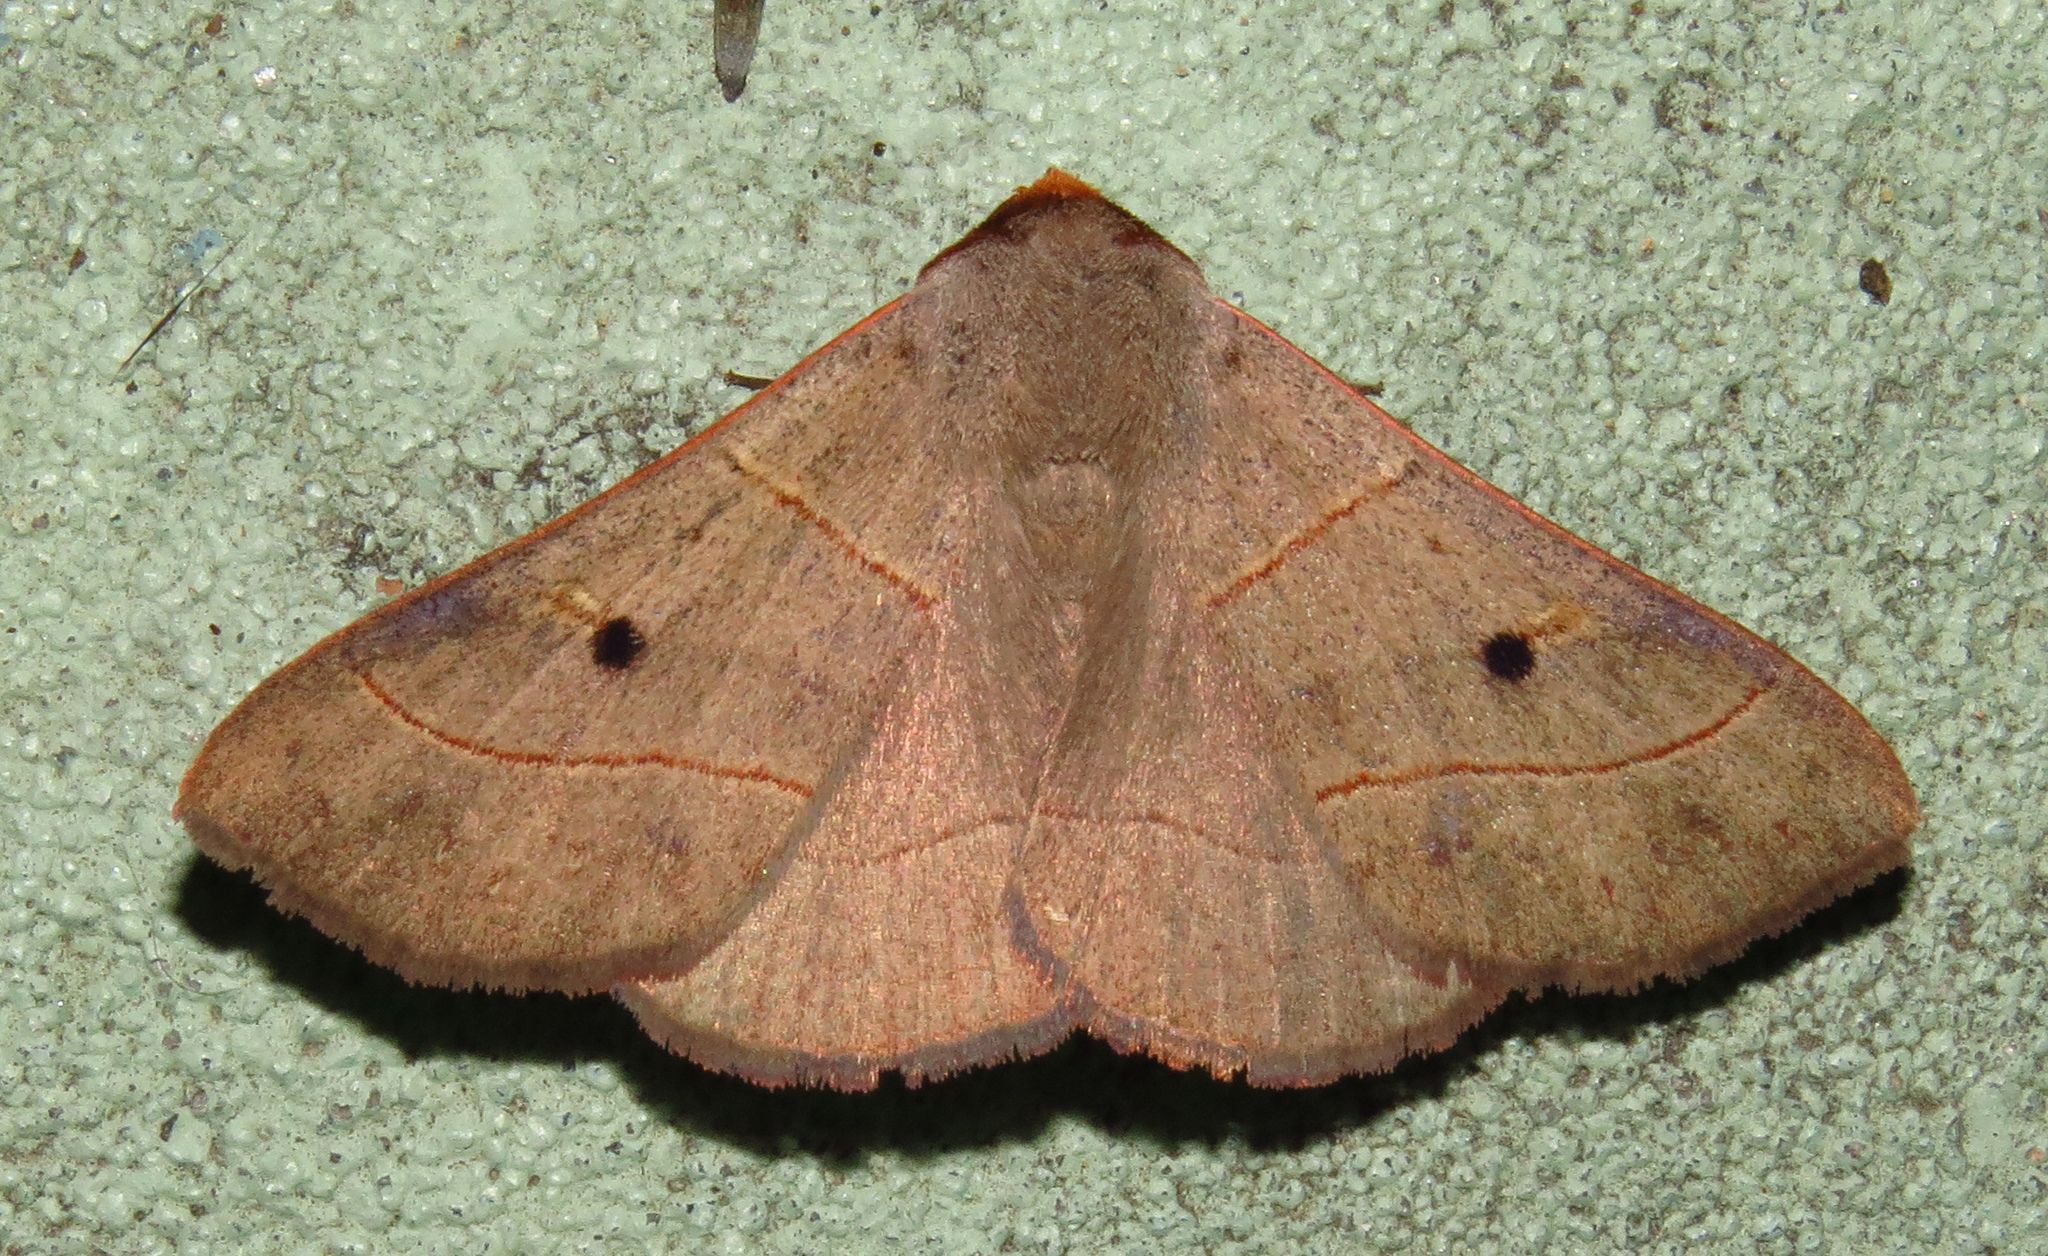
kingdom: Animalia
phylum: Arthropoda
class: Insecta
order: Lepidoptera
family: Erebidae
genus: Panopoda
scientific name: Panopoda rufimargo
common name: Red-lined panopoda moth
